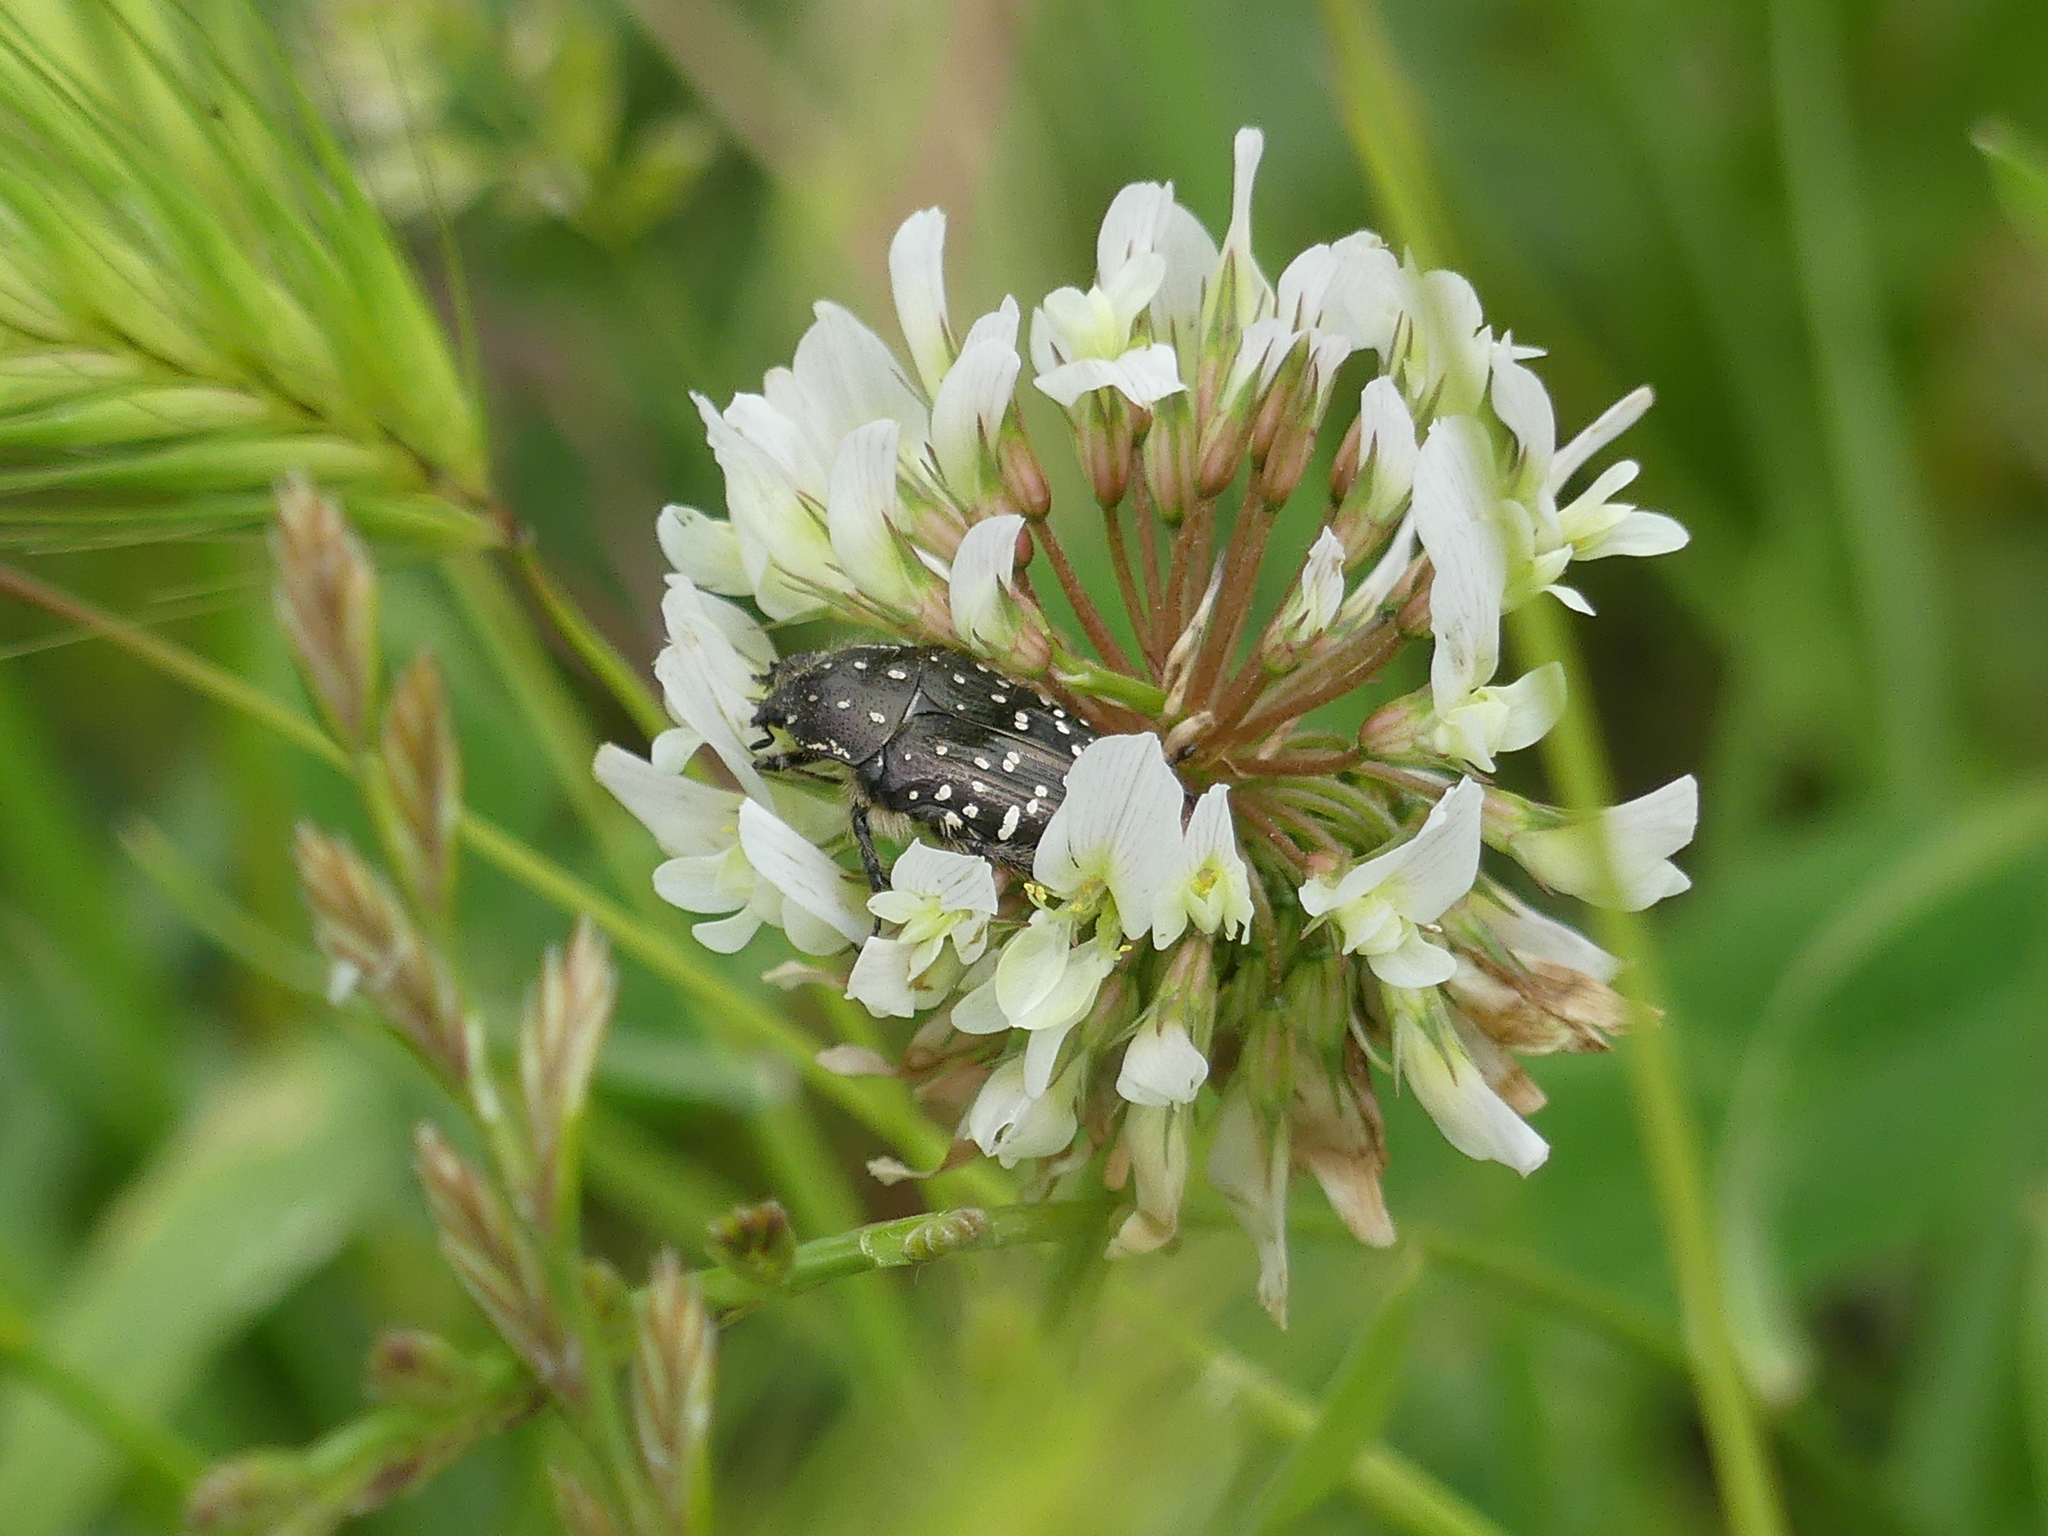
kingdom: Animalia
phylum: Arthropoda
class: Insecta
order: Coleoptera
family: Scarabaeidae
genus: Oxythyrea
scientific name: Oxythyrea funesta
